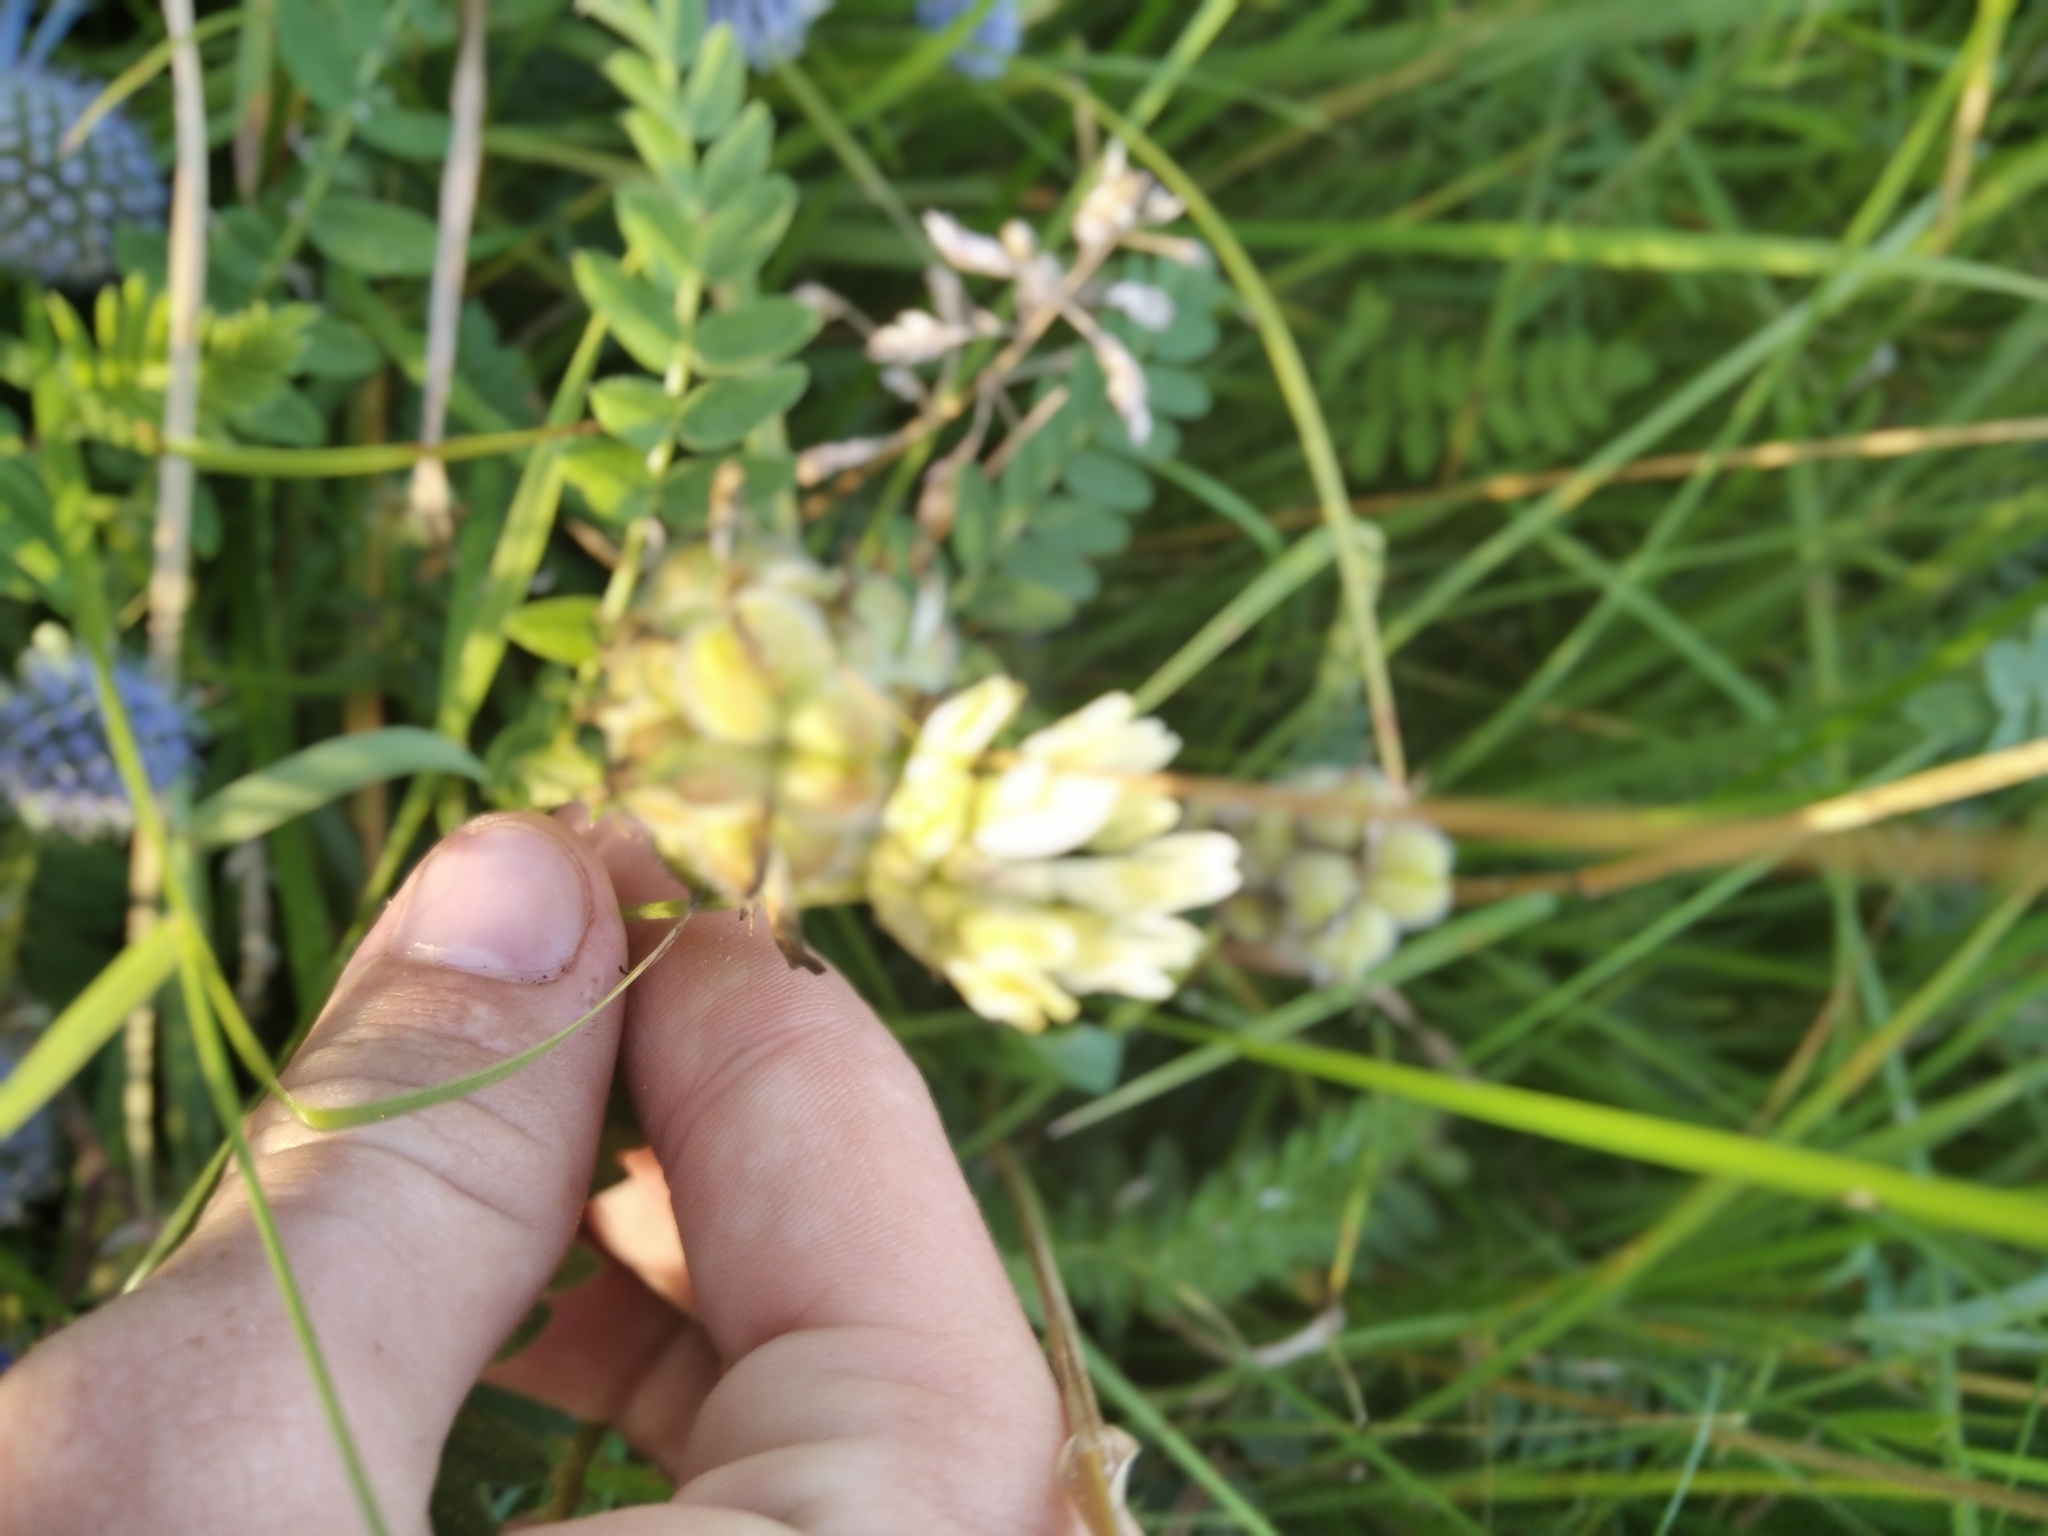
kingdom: Plantae
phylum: Tracheophyta
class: Magnoliopsida
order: Fabales
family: Fabaceae
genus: Astragalus
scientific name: Astragalus cicer
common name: Chick-pea milk-vetch
